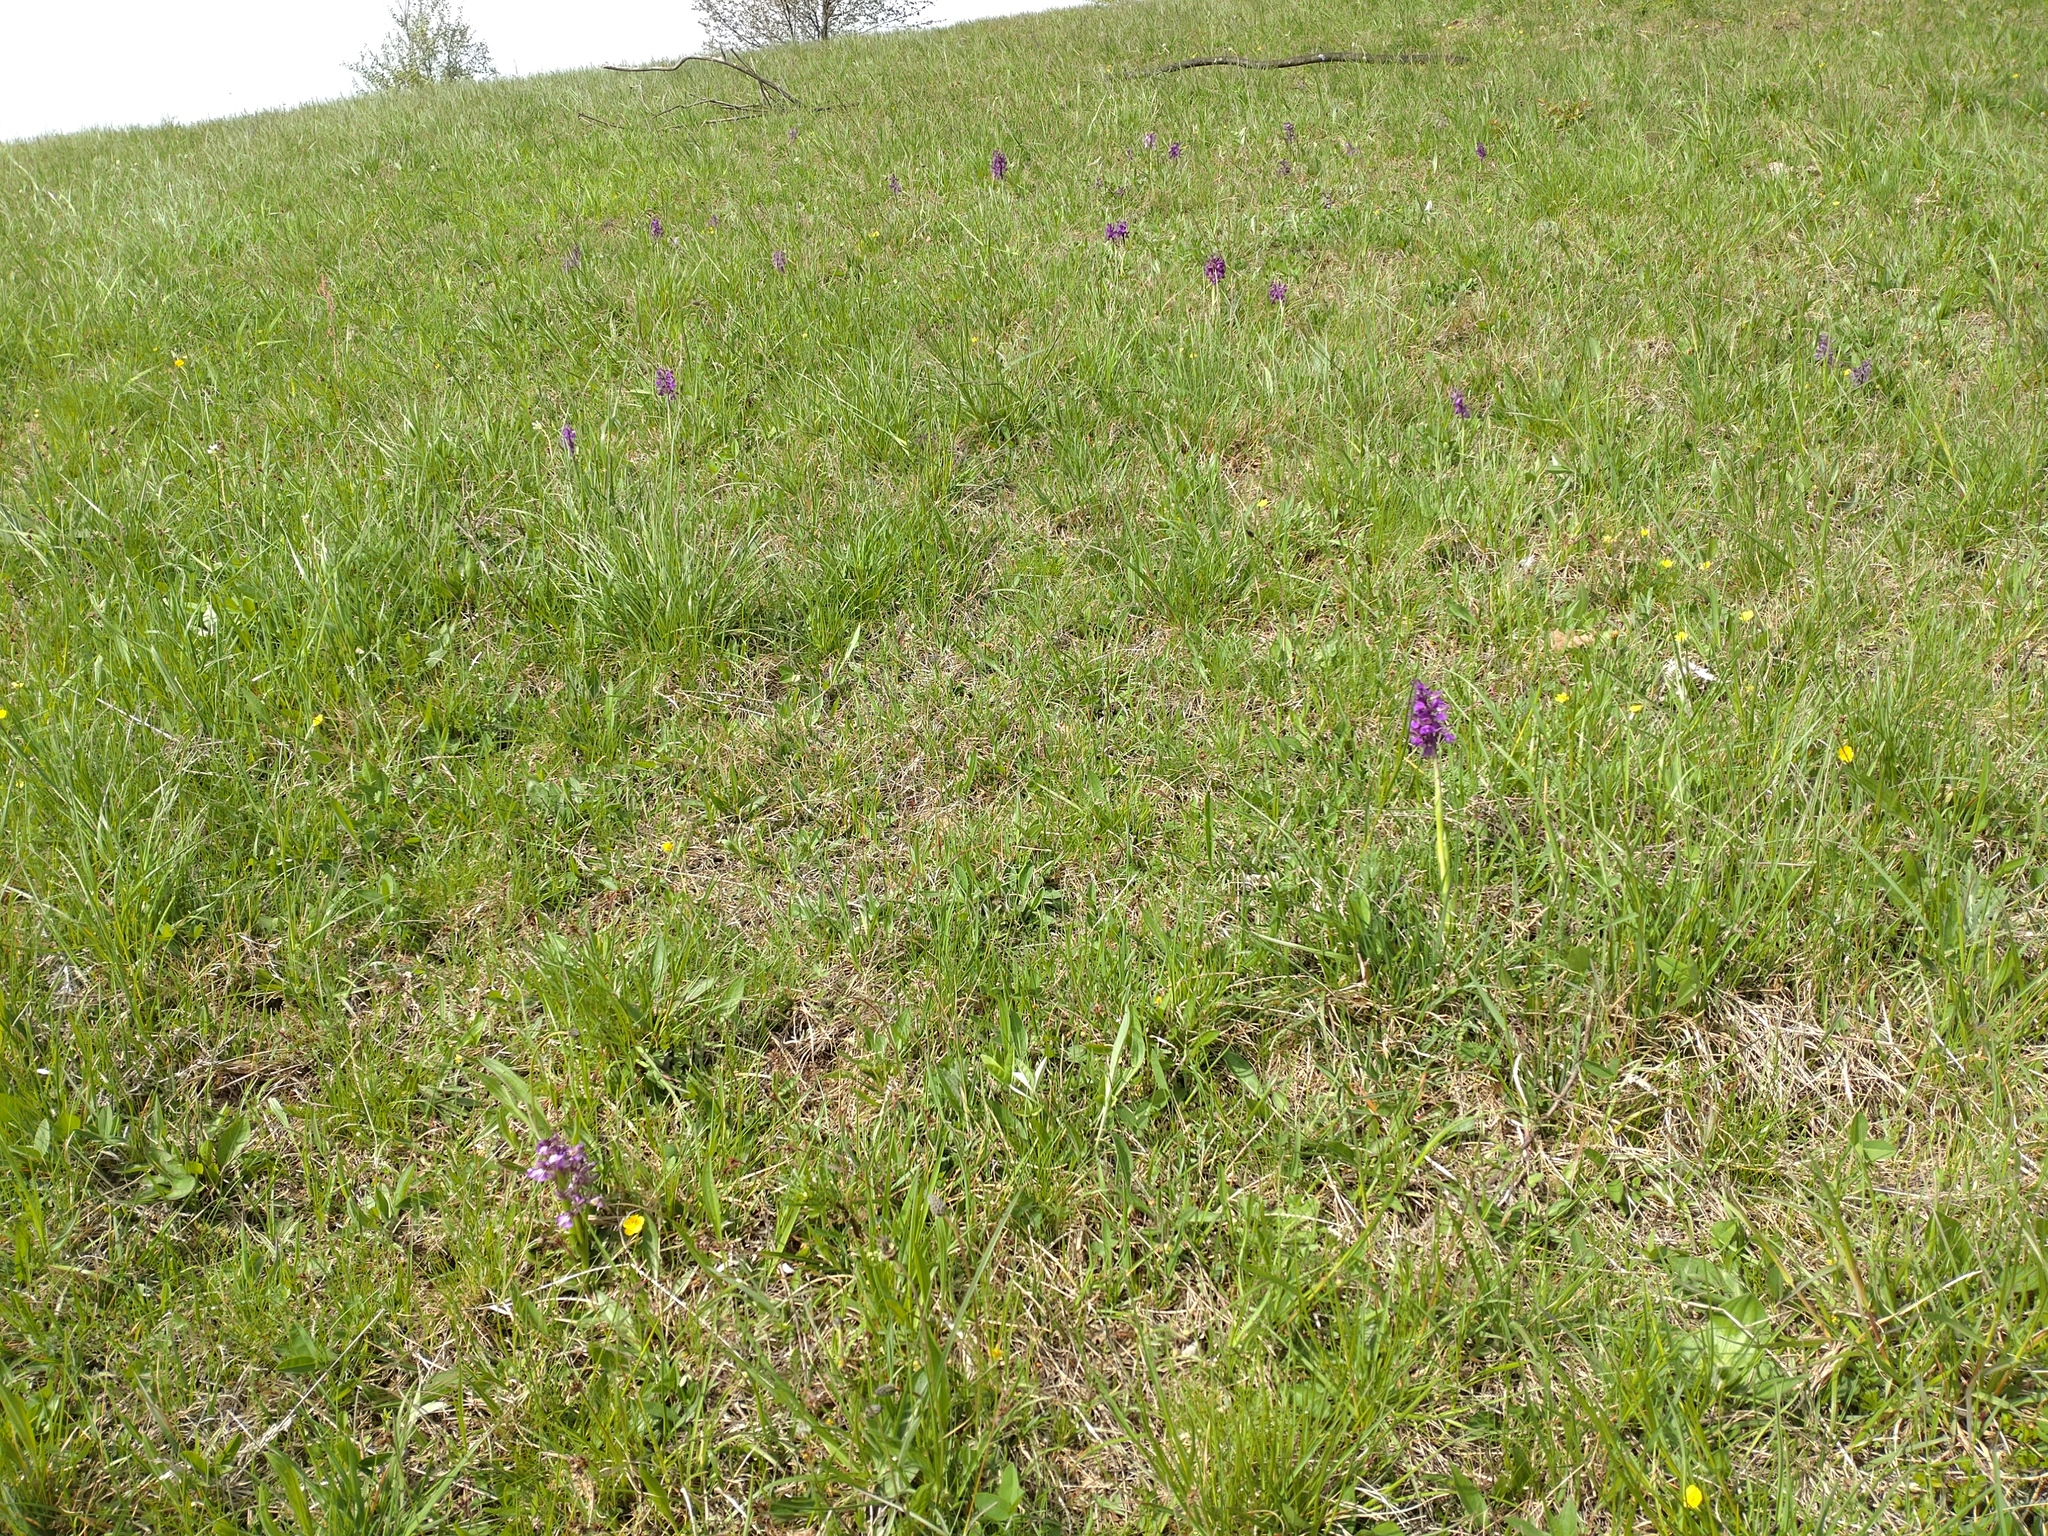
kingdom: Plantae
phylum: Tracheophyta
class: Liliopsida
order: Asparagales
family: Orchidaceae
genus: Anacamptis
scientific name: Anacamptis morio
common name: Green-winged orchid
